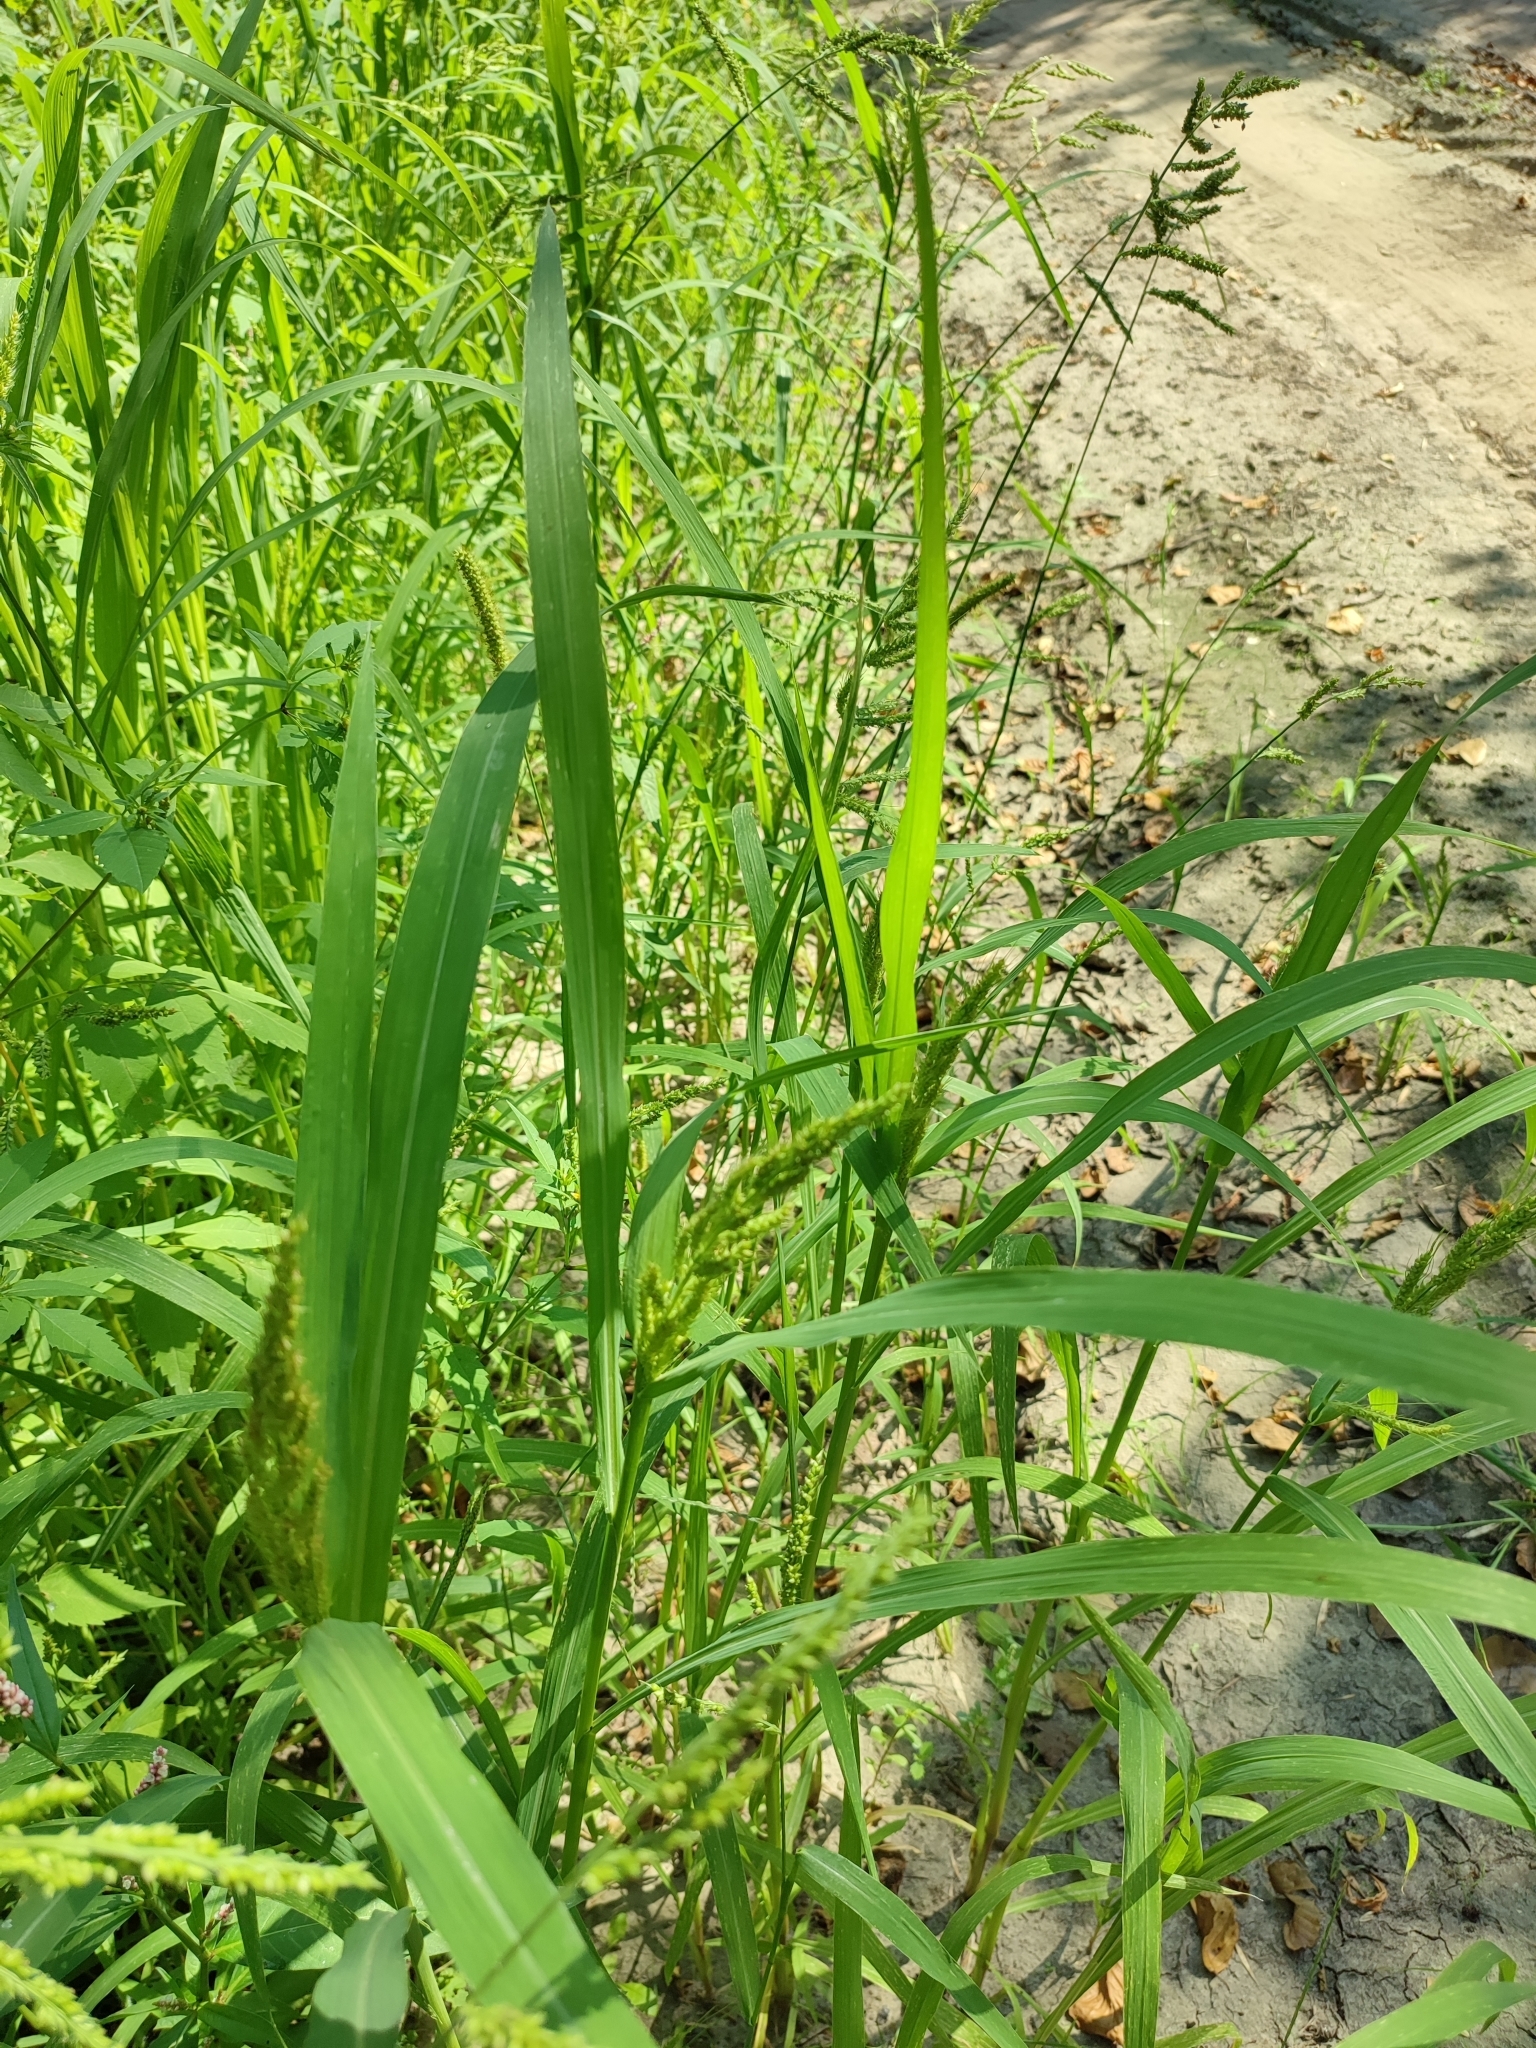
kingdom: Plantae
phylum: Tracheophyta
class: Liliopsida
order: Poales
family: Poaceae
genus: Echinochloa
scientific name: Echinochloa crus-galli
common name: Cockspur
